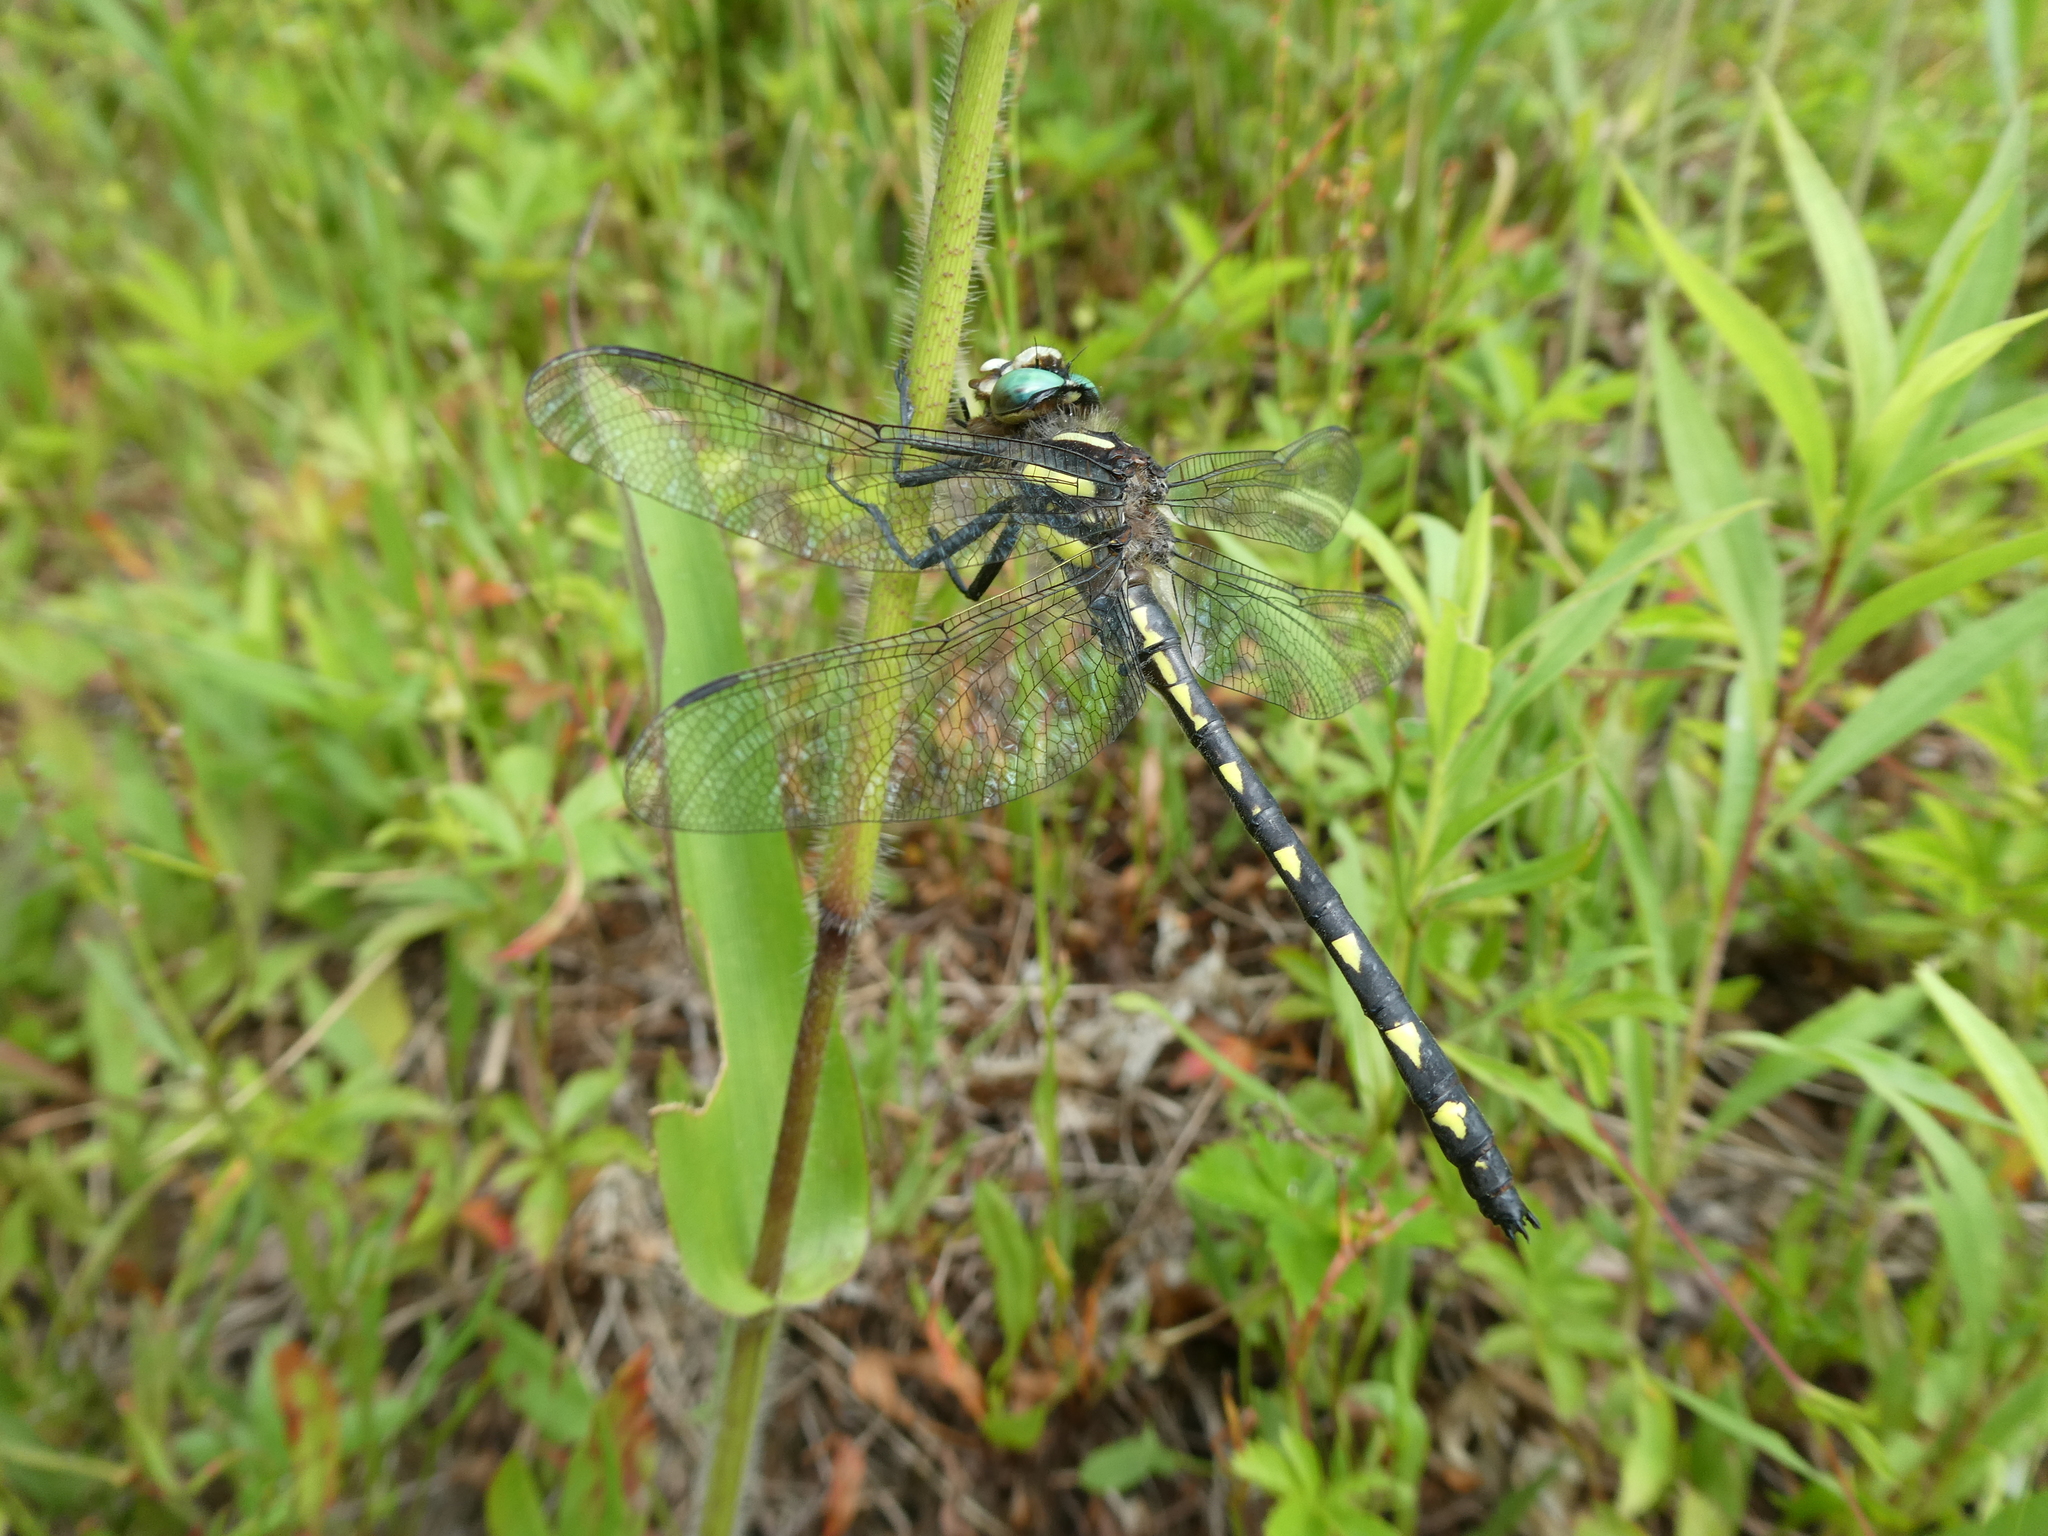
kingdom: Animalia
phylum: Arthropoda
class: Insecta
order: Odonata
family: Cordulegastridae
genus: Cordulegaster
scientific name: Cordulegaster diastatops
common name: Delta-spotted spiketail
